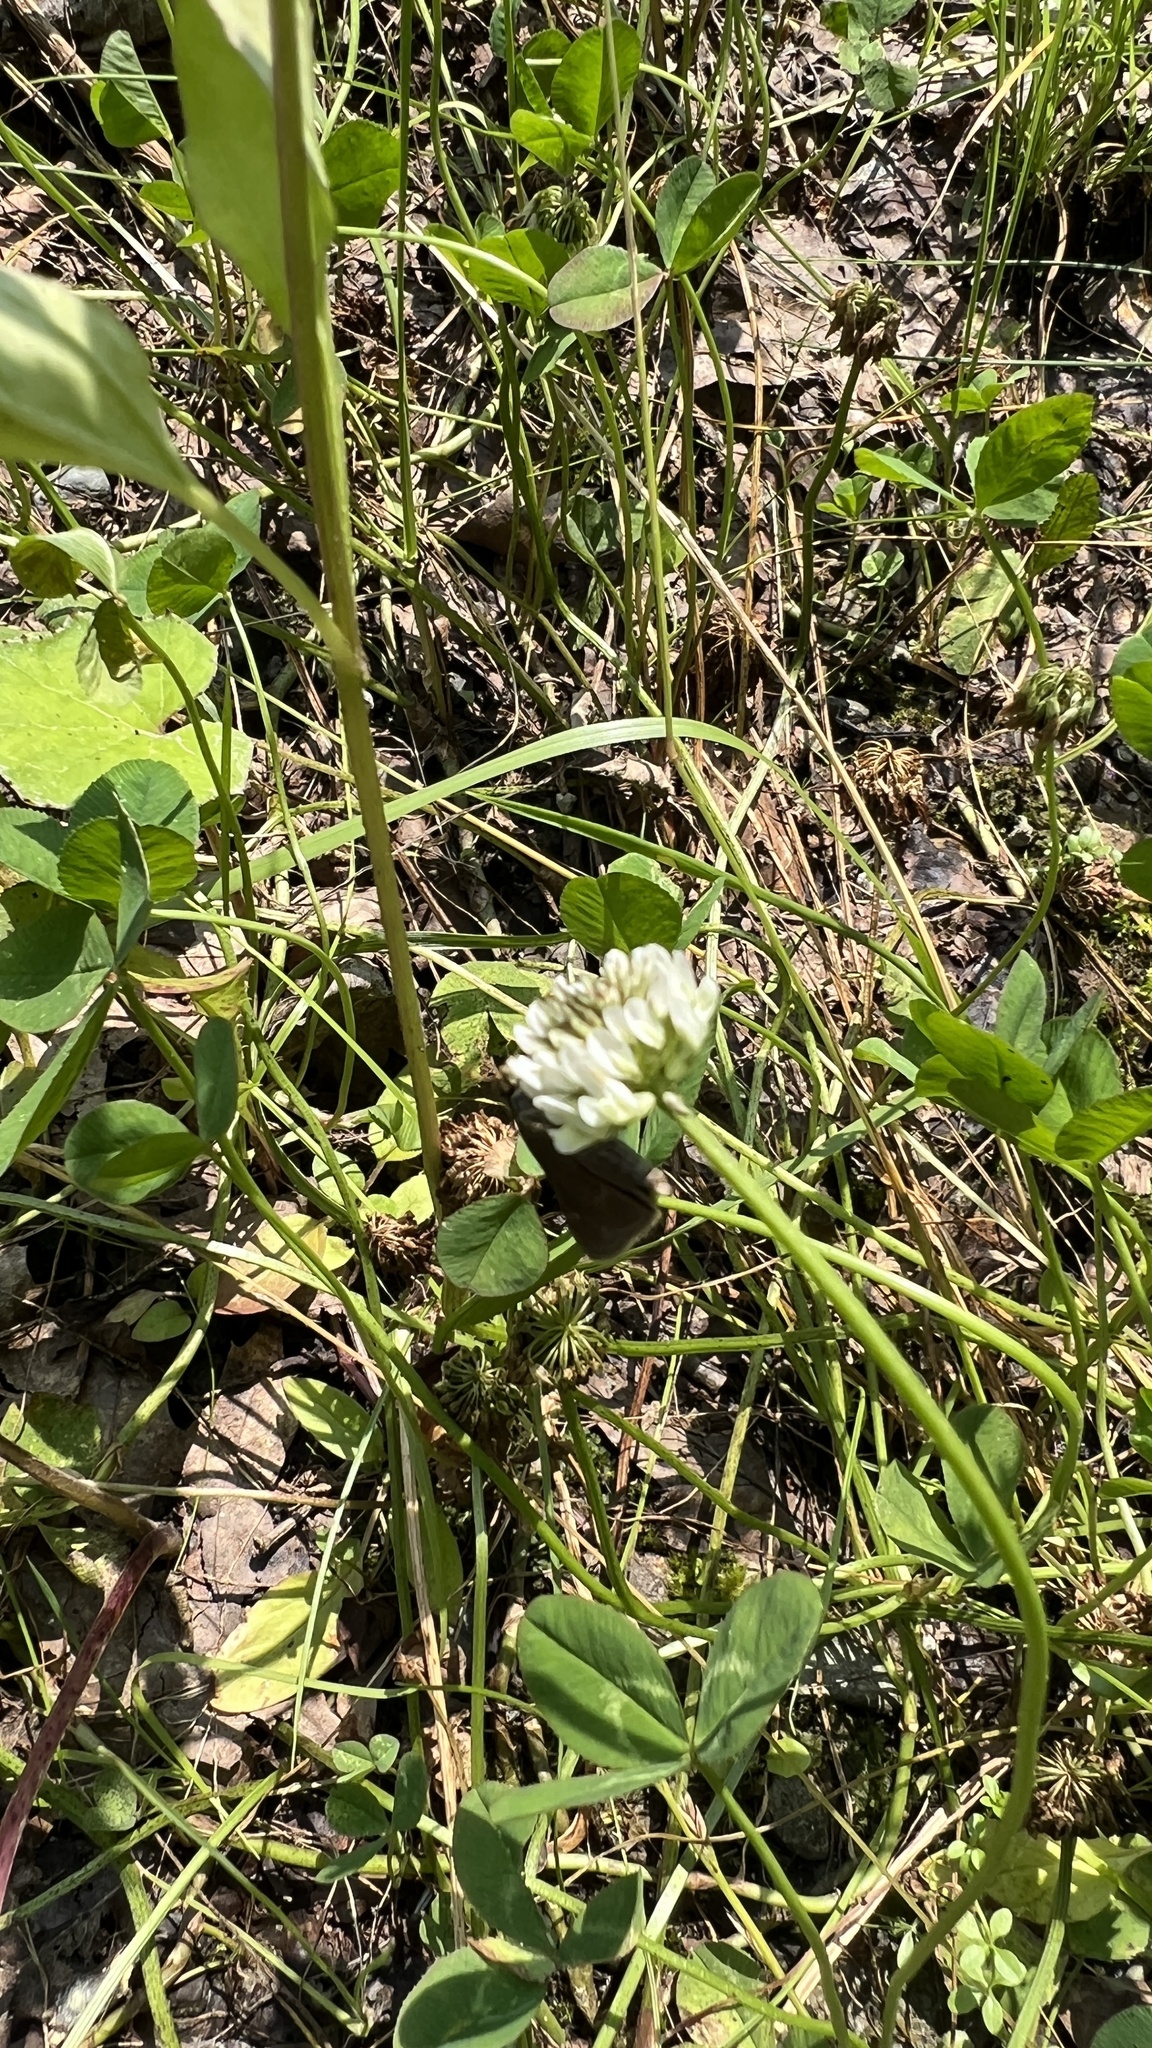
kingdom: Plantae
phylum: Tracheophyta
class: Magnoliopsida
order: Fabales
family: Fabaceae
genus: Trifolium
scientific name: Trifolium repens
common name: White clover
